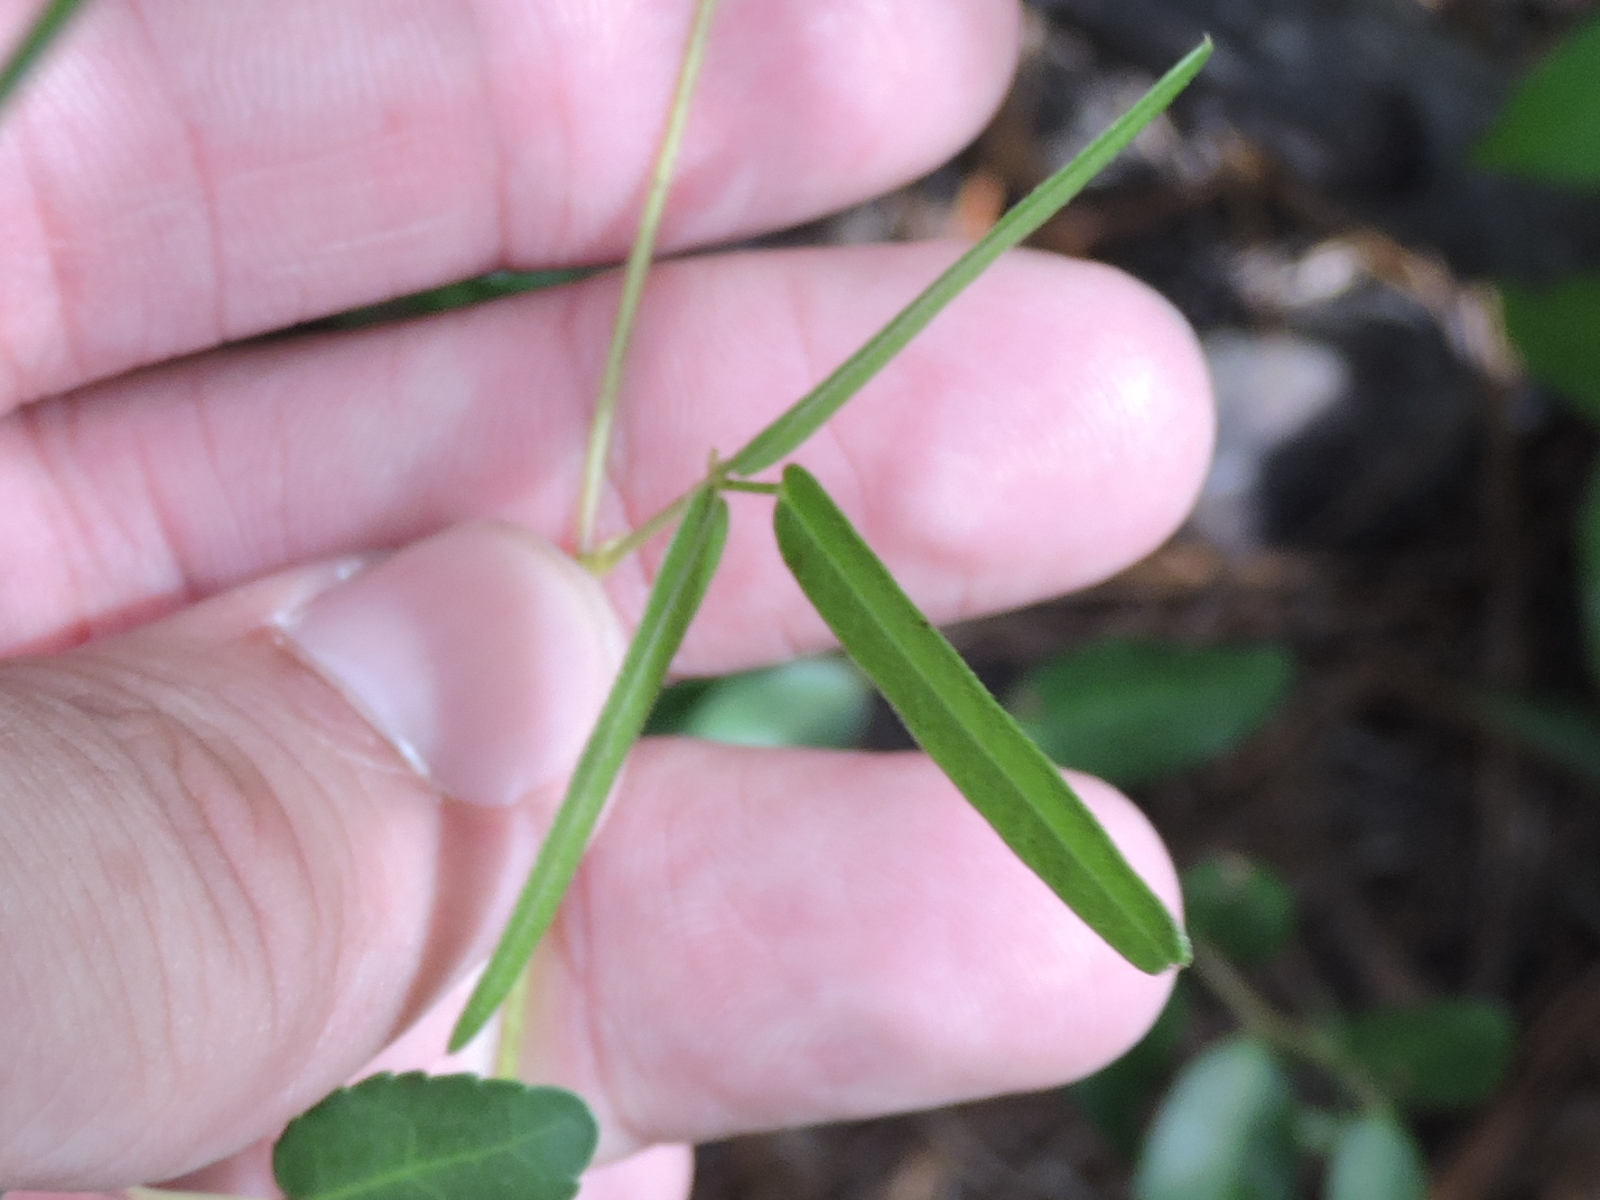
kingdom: Plantae
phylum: Tracheophyta
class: Magnoliopsida
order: Fabales
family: Fabaceae
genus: Strophostyles
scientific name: Strophostyles umbellata
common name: Perennial wild bean
